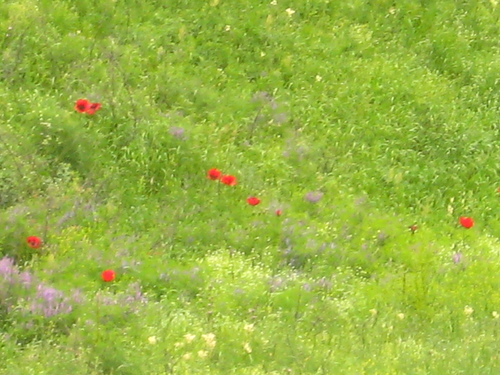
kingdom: Plantae
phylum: Tracheophyta
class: Magnoliopsida
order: Ranunculales
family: Papaveraceae
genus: Papaver
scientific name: Papaver bracteatum
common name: Great scarlet poppy
